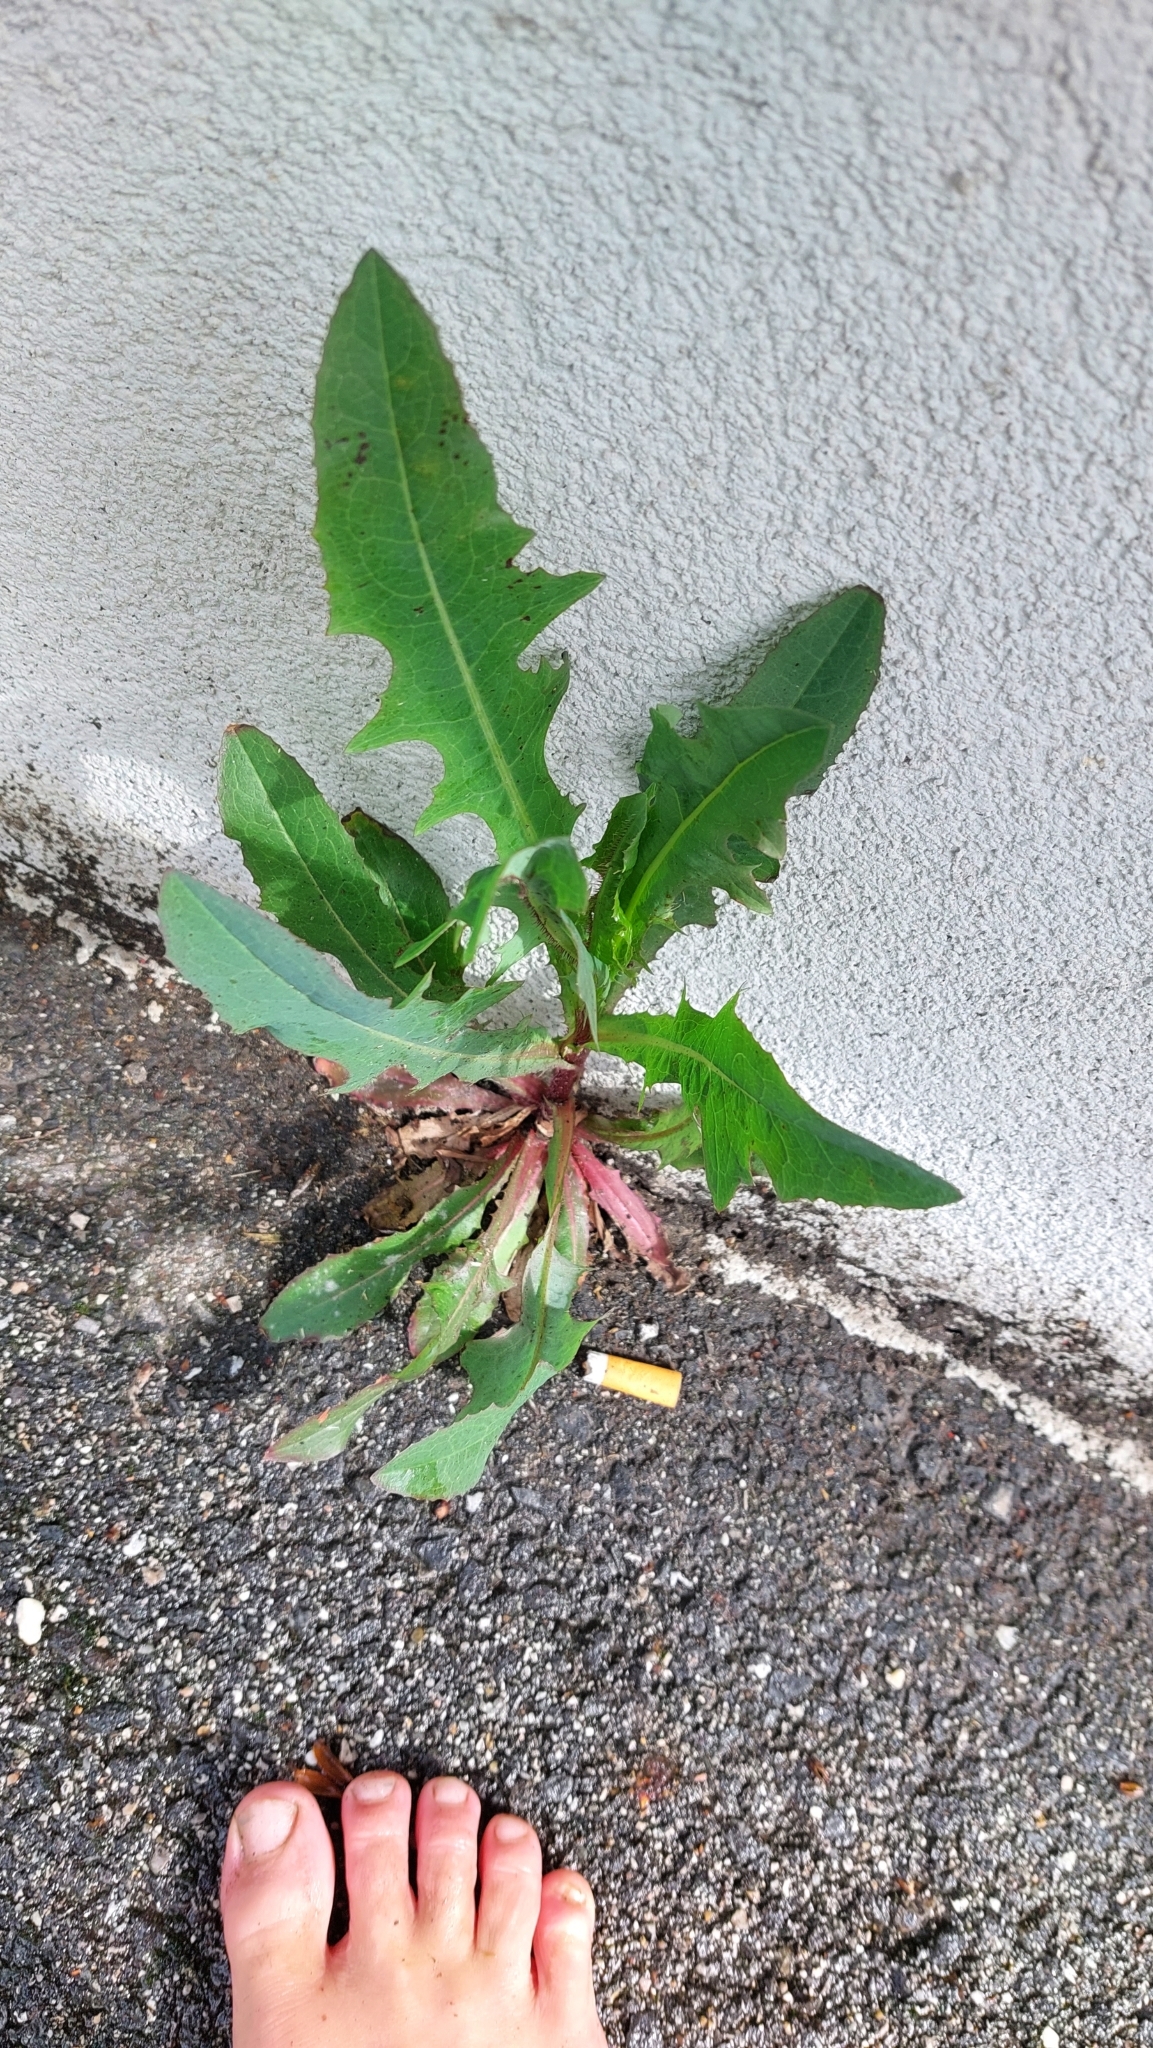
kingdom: Plantae
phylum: Tracheophyta
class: Magnoliopsida
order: Asterales
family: Asteraceae
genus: Lactuca
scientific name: Lactuca serriola
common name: Prickly lettuce
